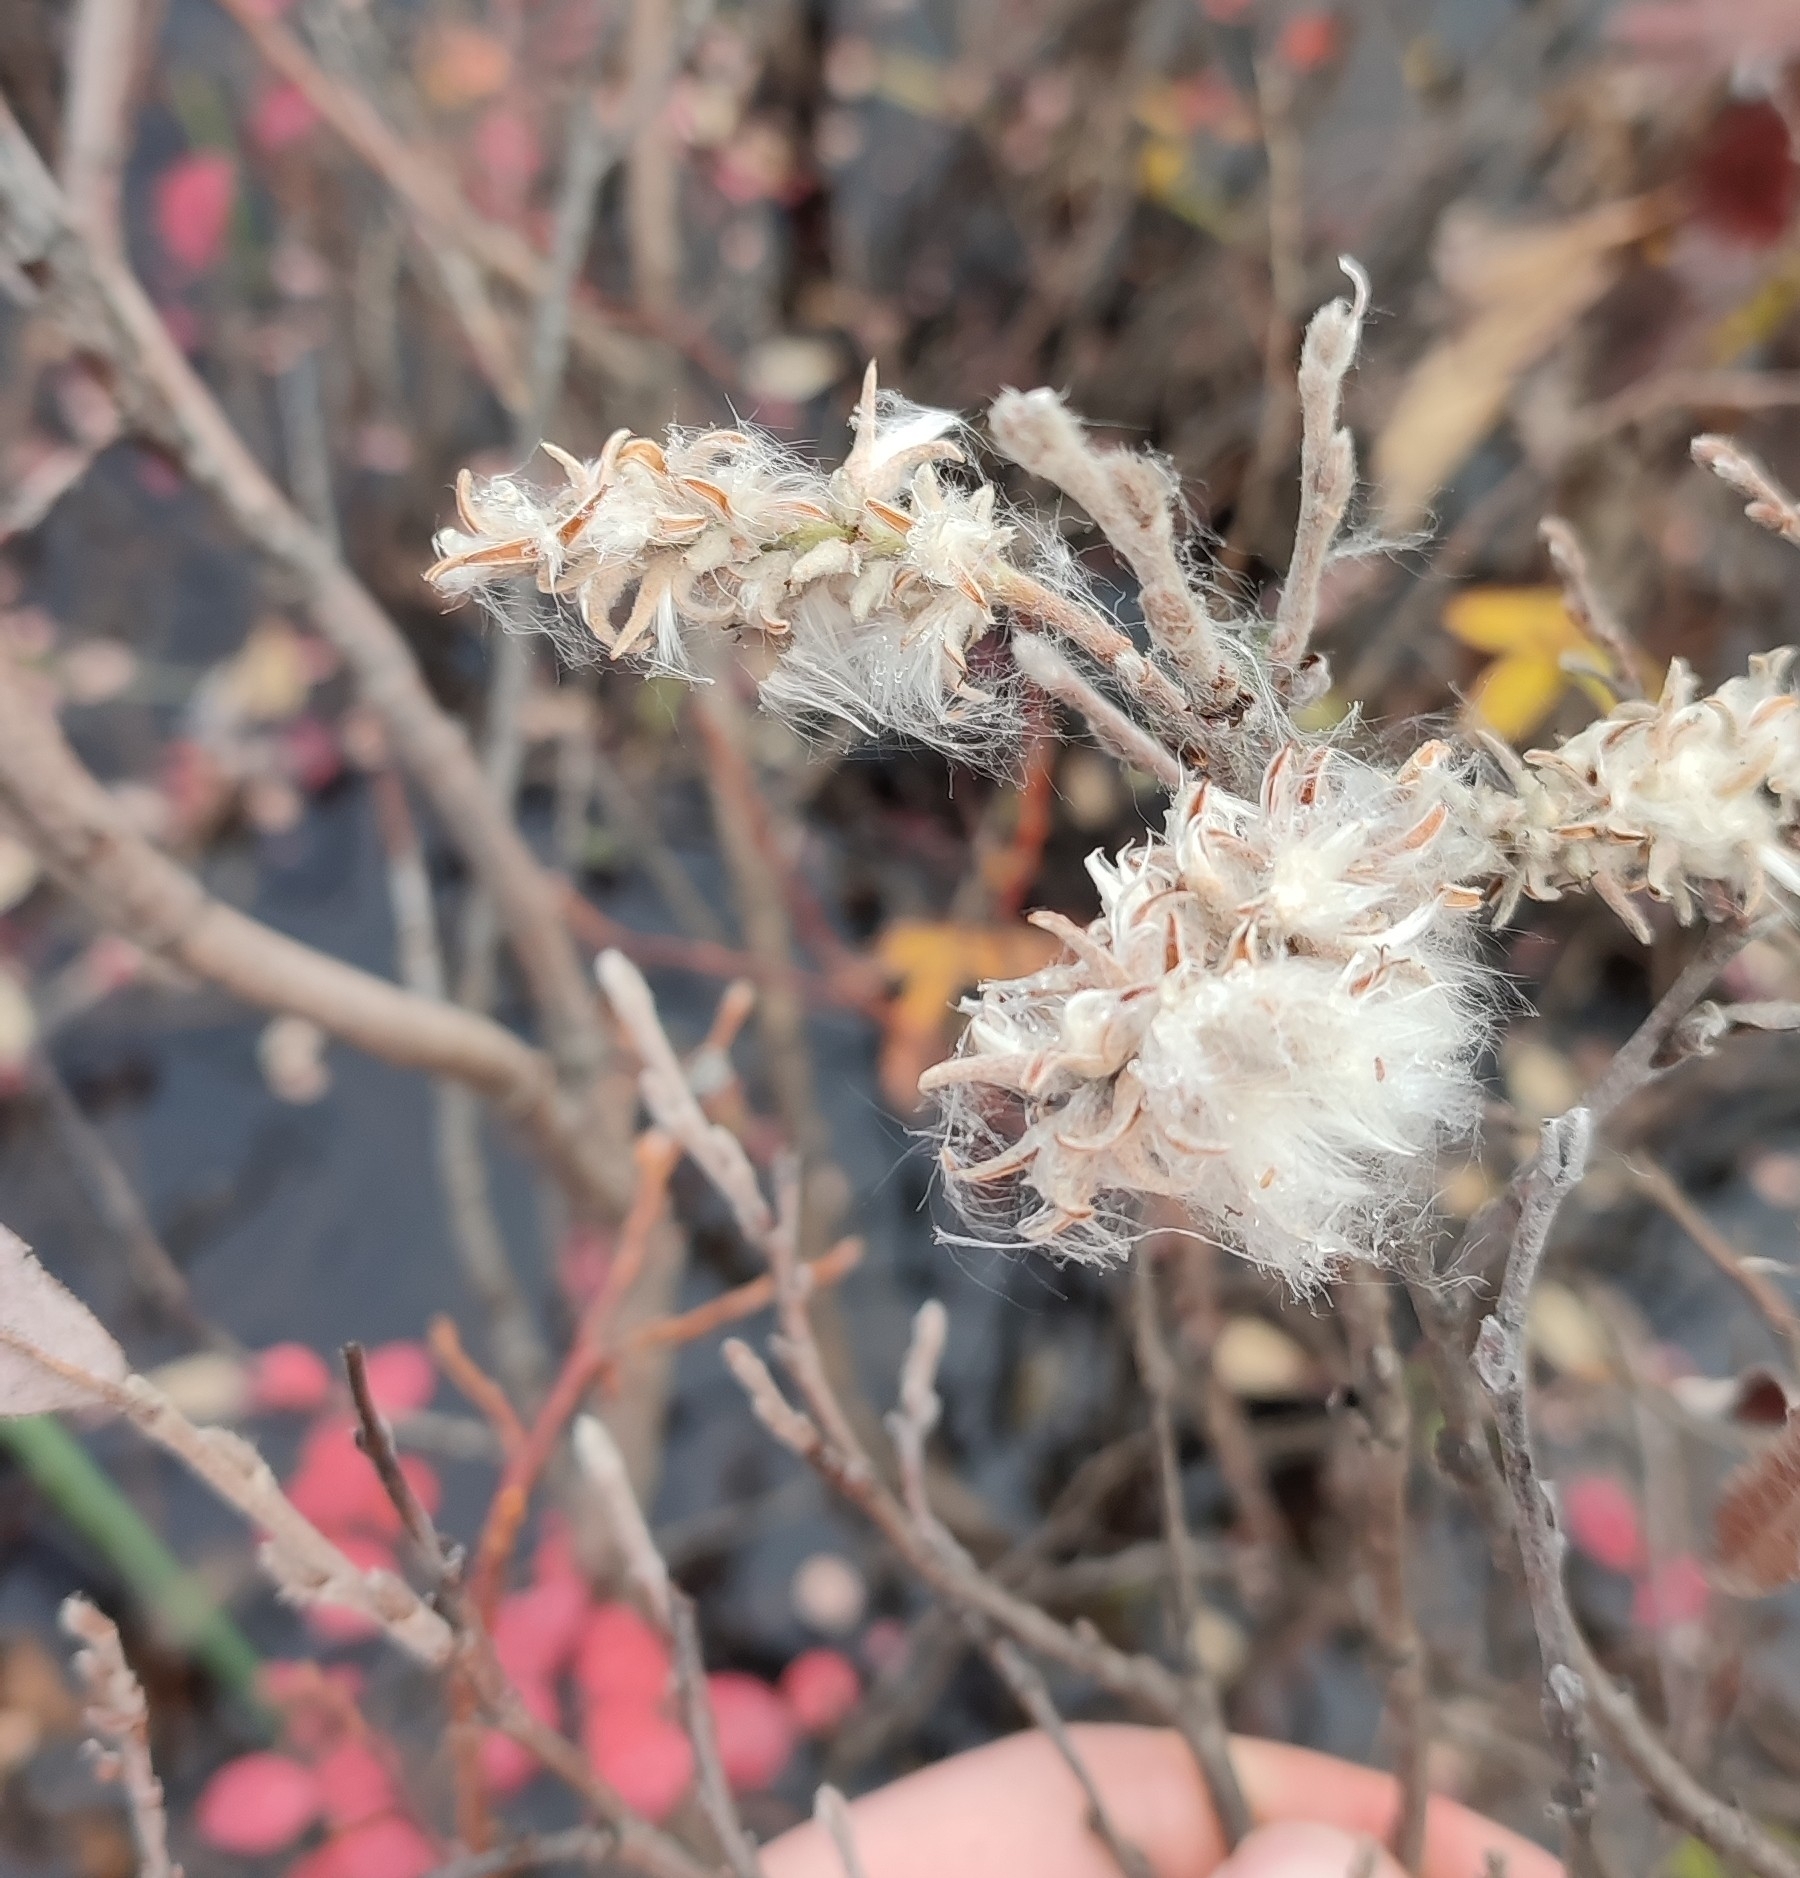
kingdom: Plantae
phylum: Tracheophyta
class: Magnoliopsida
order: Malpighiales
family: Salicaceae
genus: Salix
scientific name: Salix glauca
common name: Glaucous willow
